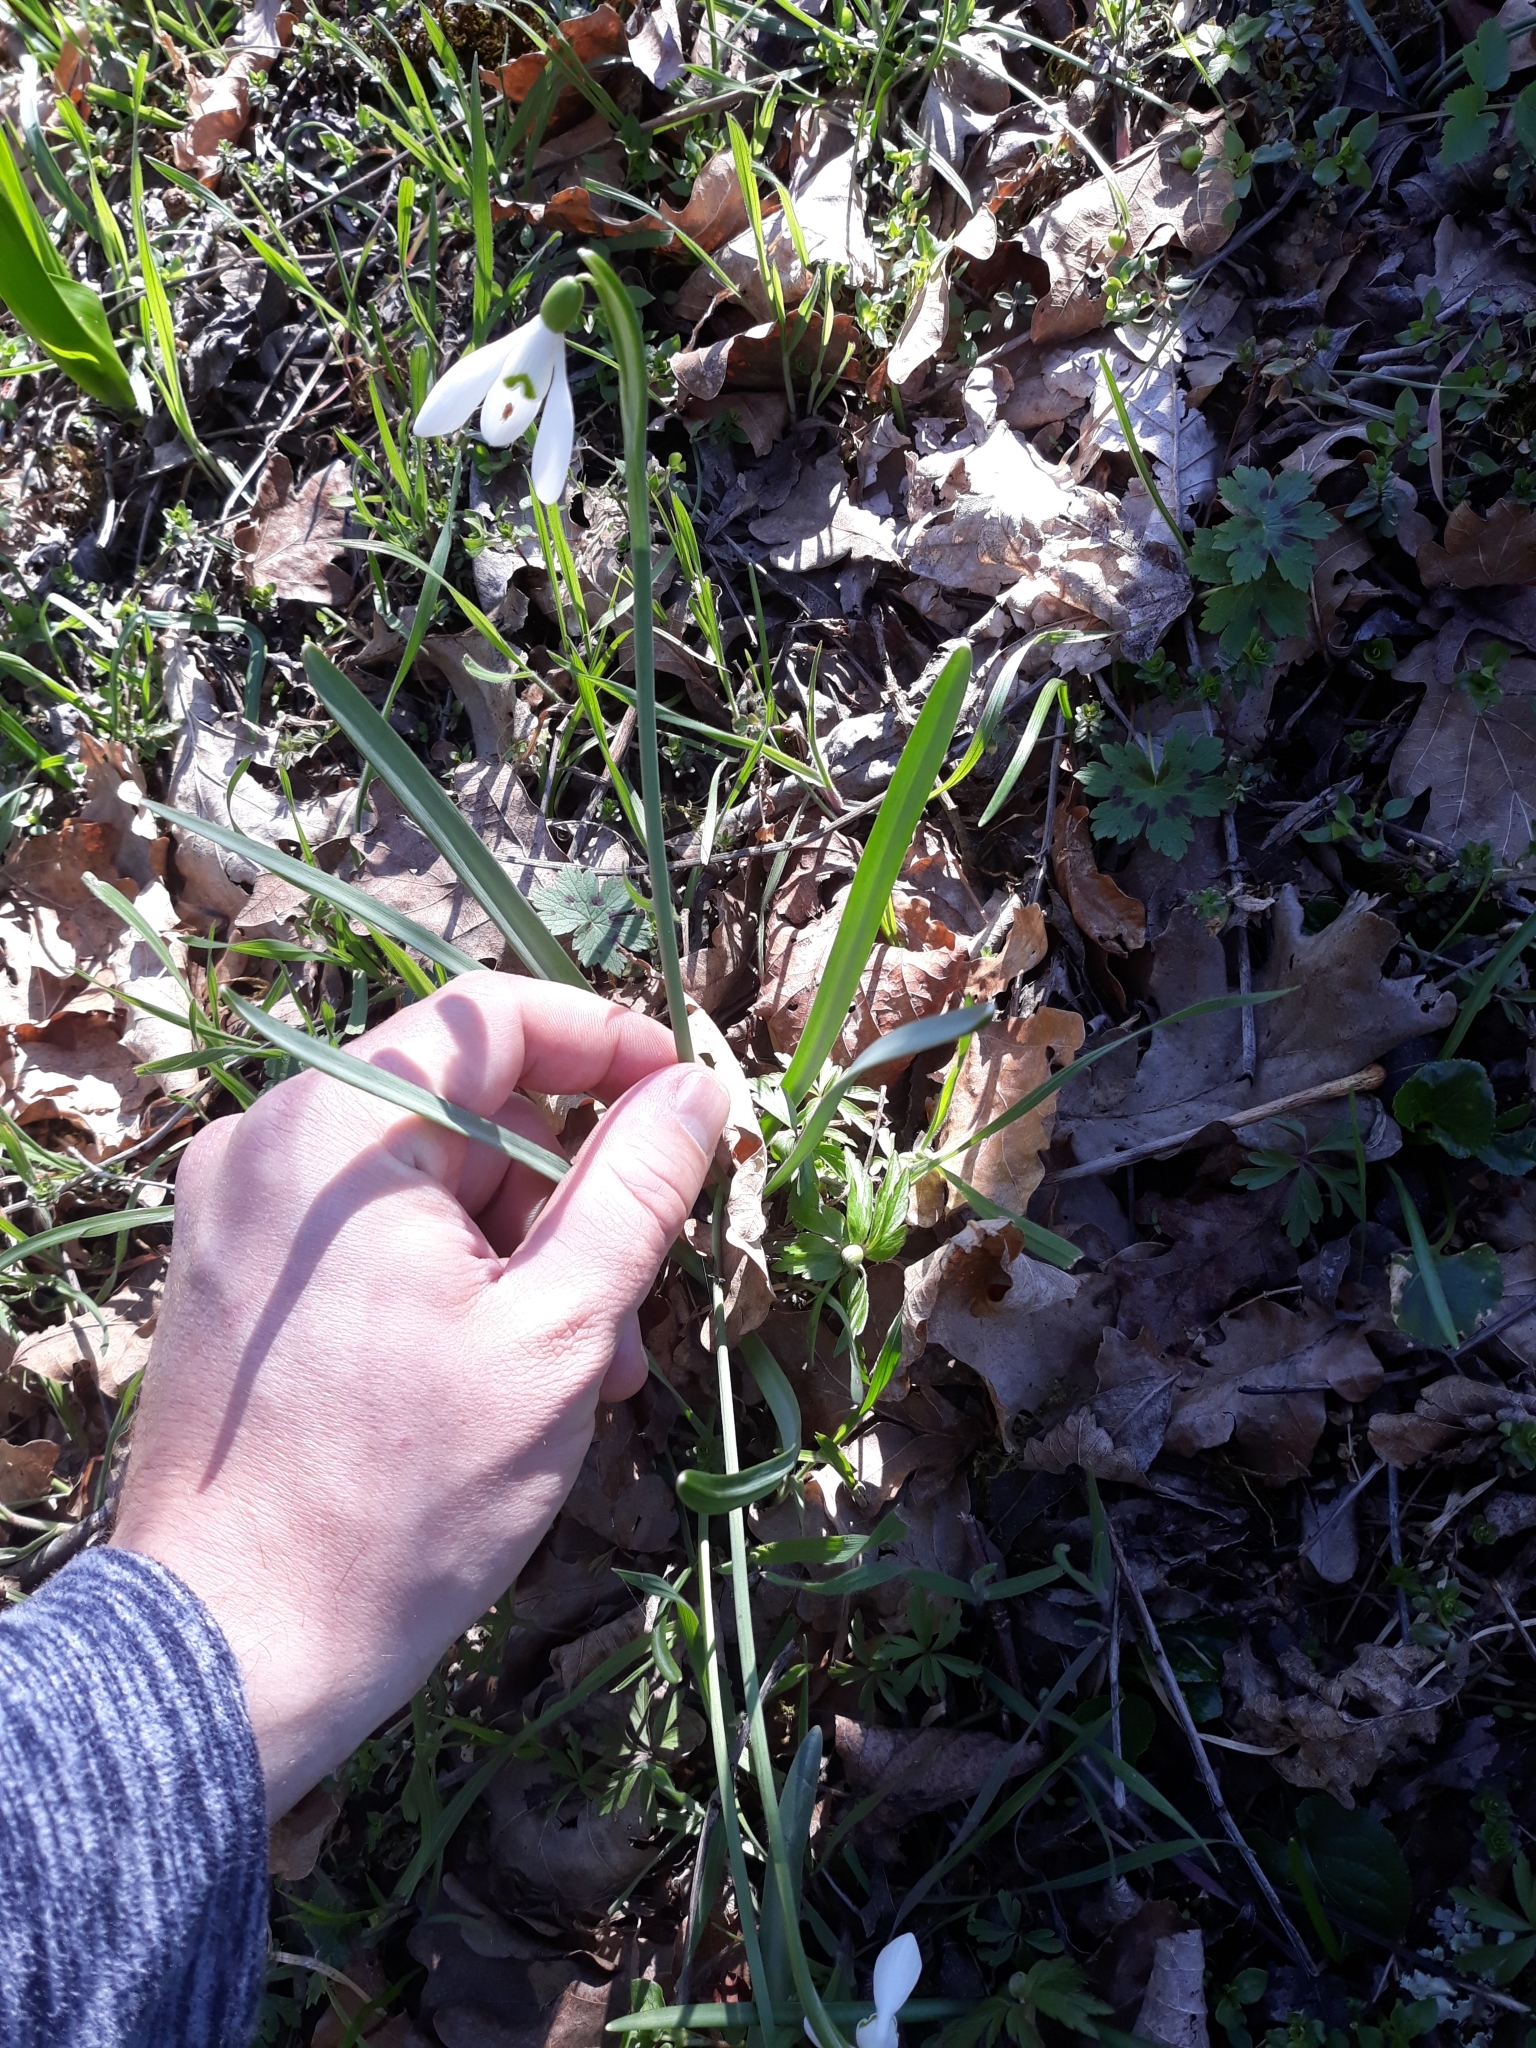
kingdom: Plantae
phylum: Tracheophyta
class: Liliopsida
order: Asparagales
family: Amaryllidaceae
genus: Galanthus
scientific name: Galanthus nivalis
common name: Snowdrop
